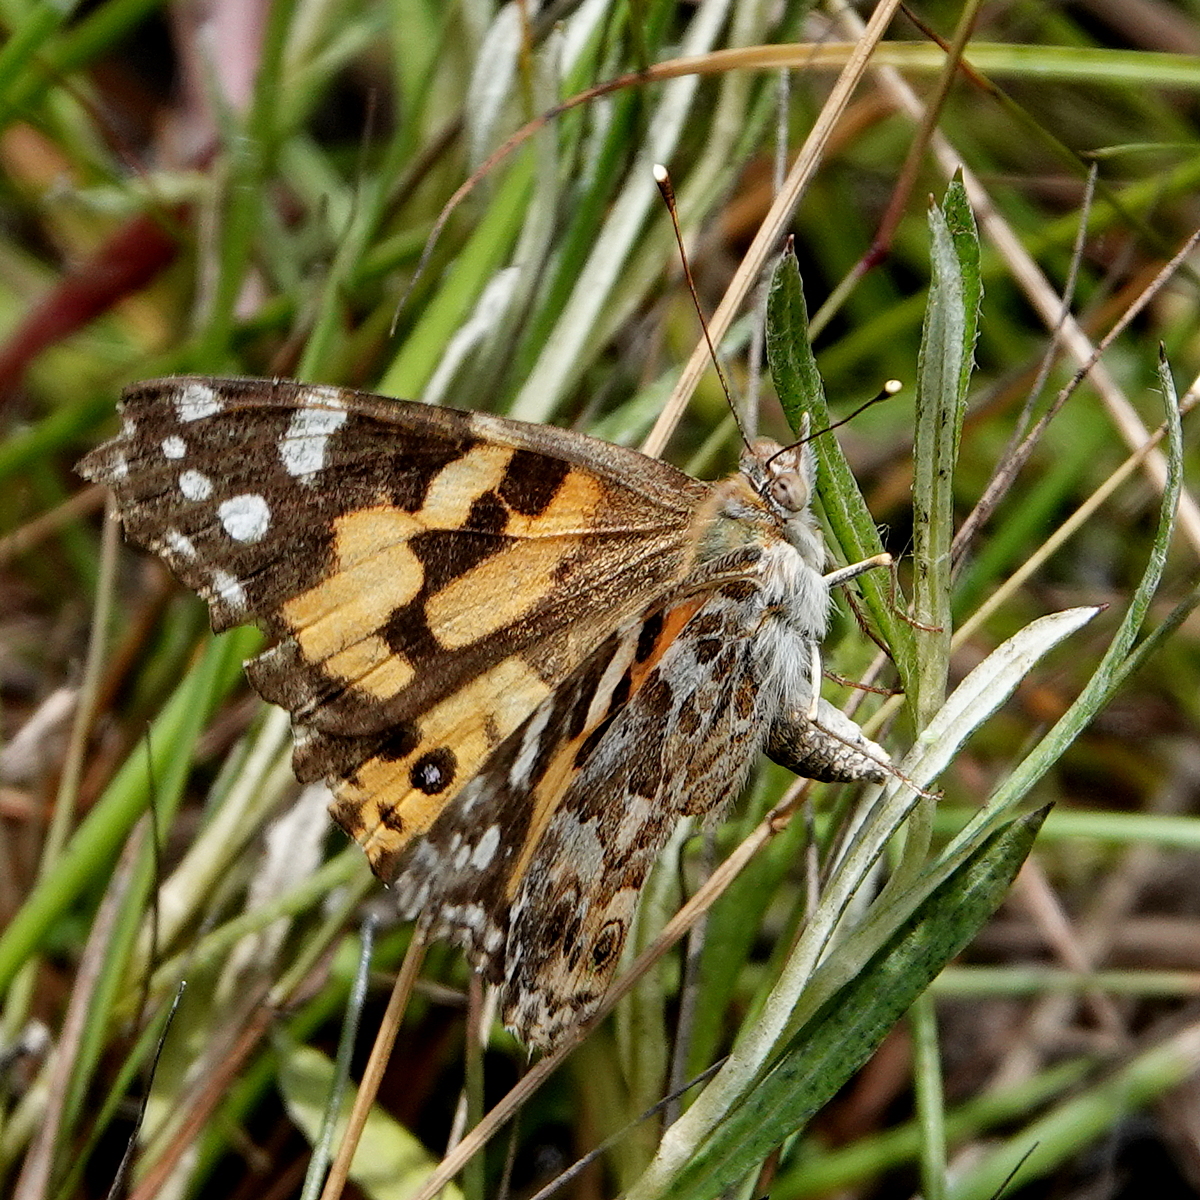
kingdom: Animalia
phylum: Arthropoda
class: Insecta
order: Lepidoptera
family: Nymphalidae
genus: Vanessa
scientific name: Vanessa kershawi
